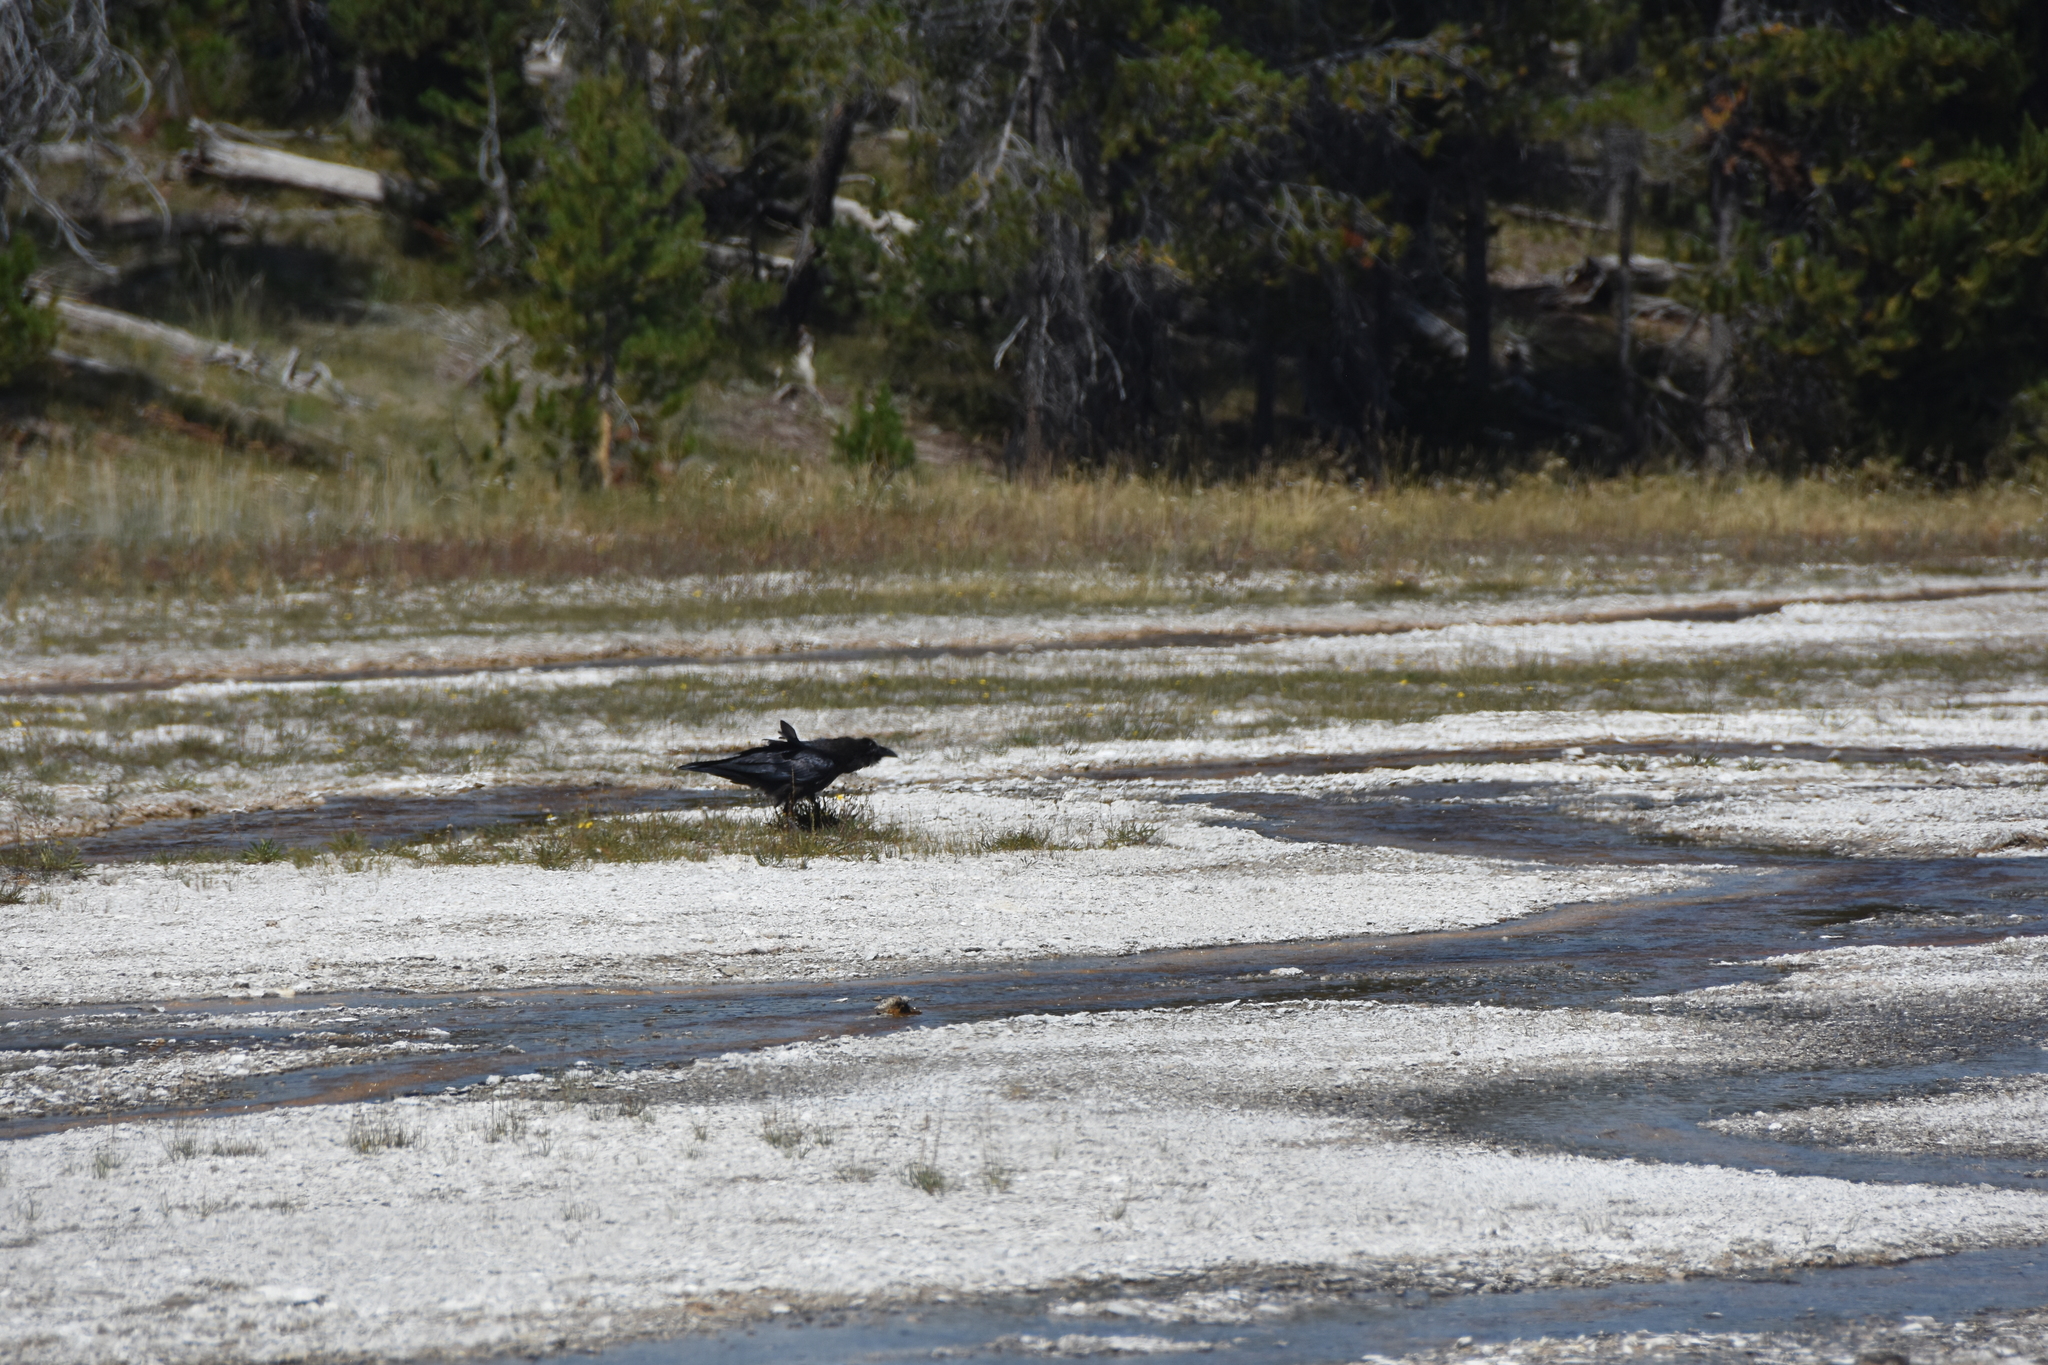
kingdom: Animalia
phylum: Chordata
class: Aves
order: Passeriformes
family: Corvidae
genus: Corvus
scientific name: Corvus corax
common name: Common raven
